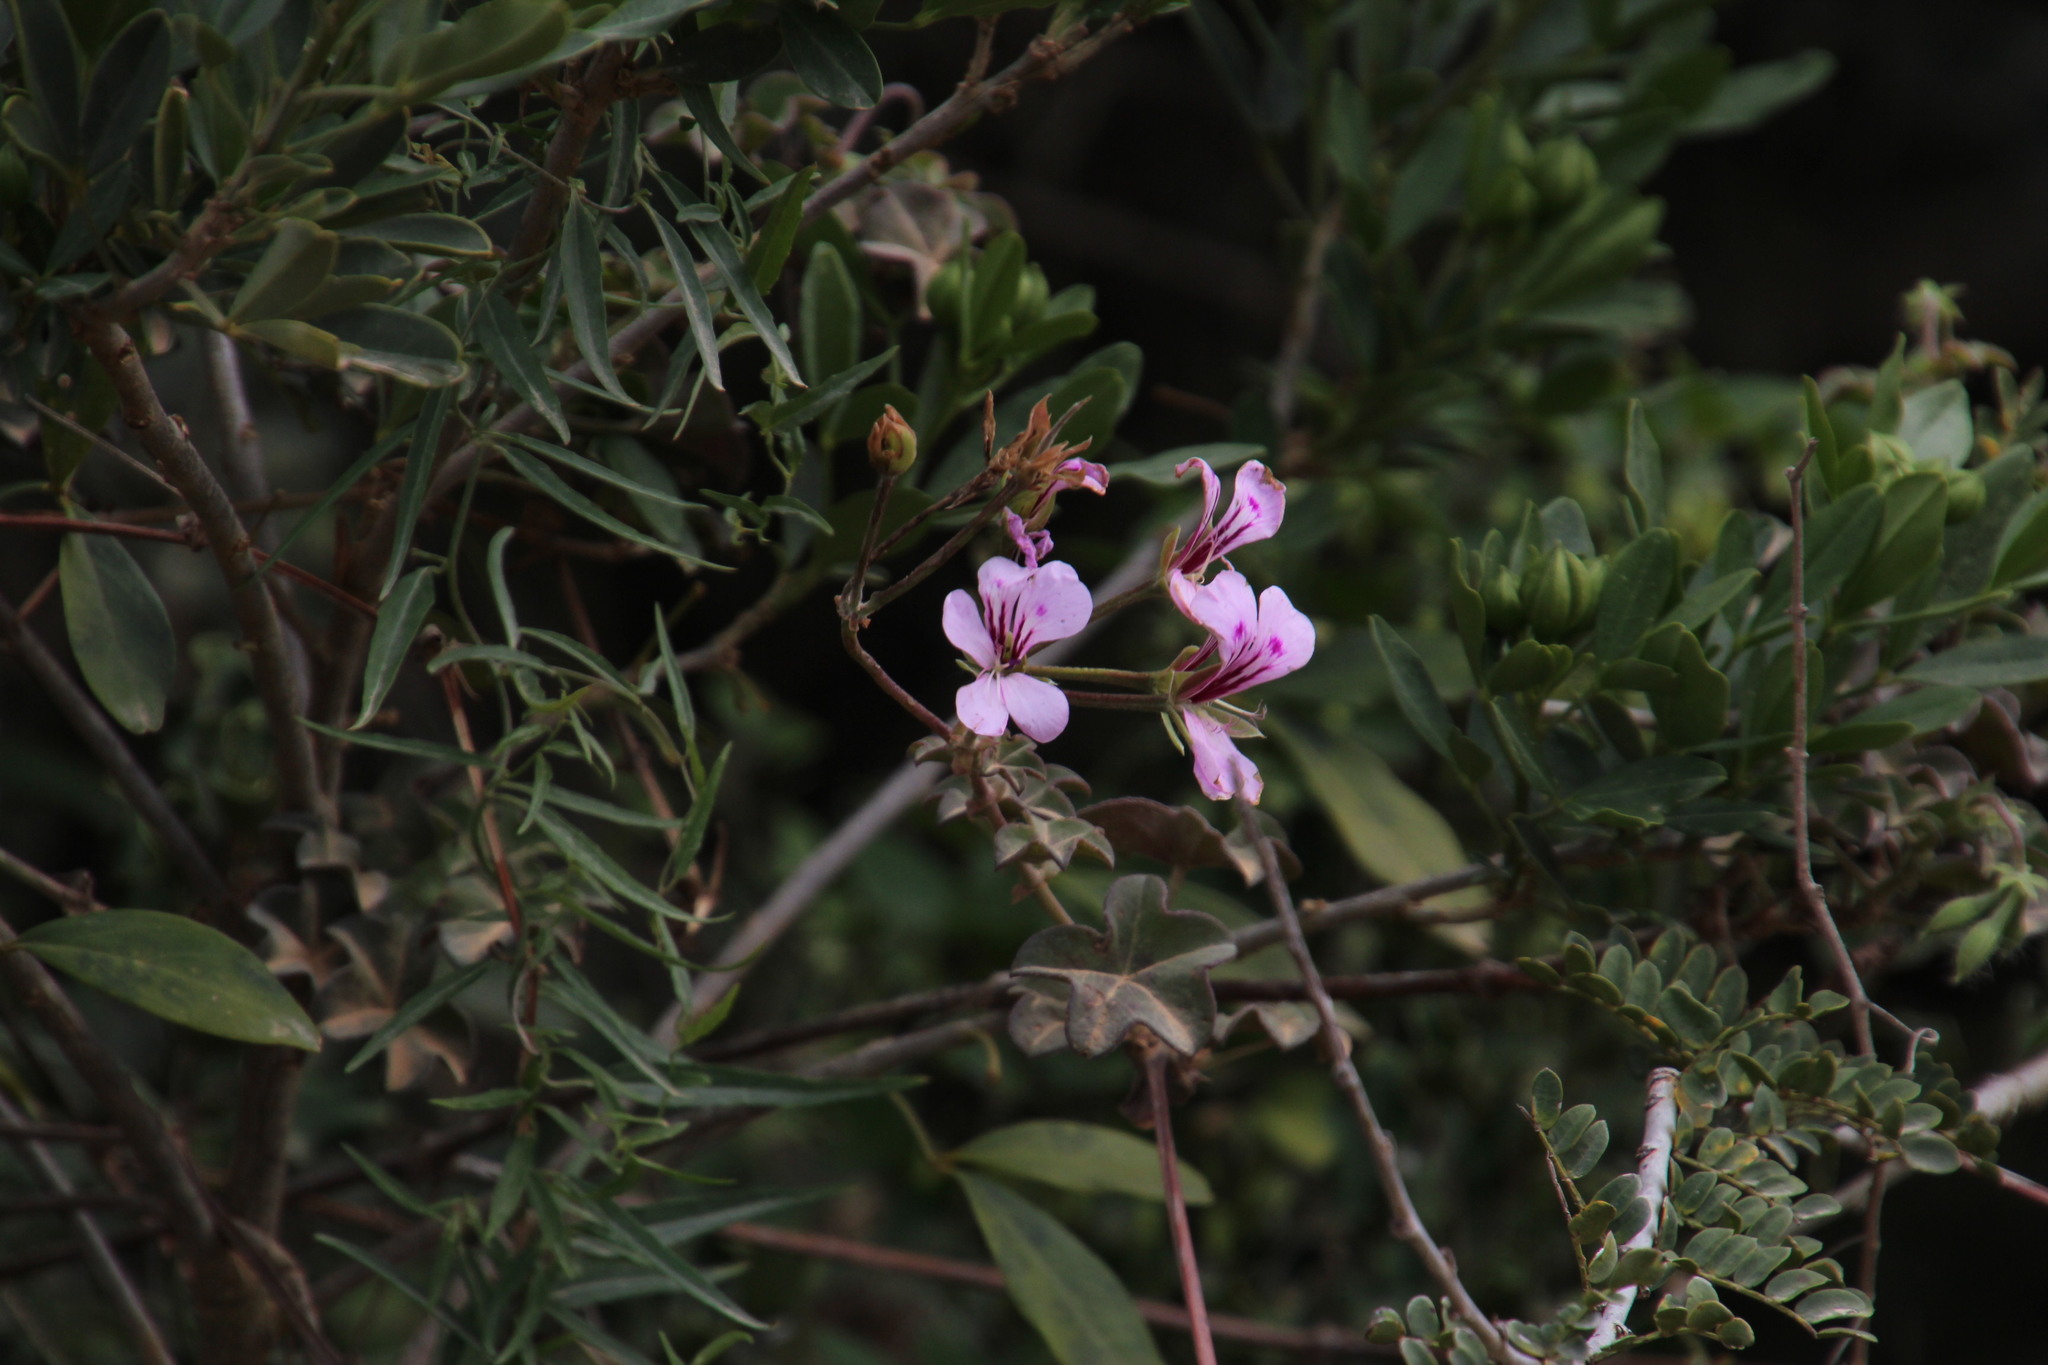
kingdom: Plantae
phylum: Tracheophyta
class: Magnoliopsida
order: Geraniales
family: Geraniaceae
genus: Pelargonium
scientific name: Pelargonium peltatum
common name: Ivyleaf geranium
